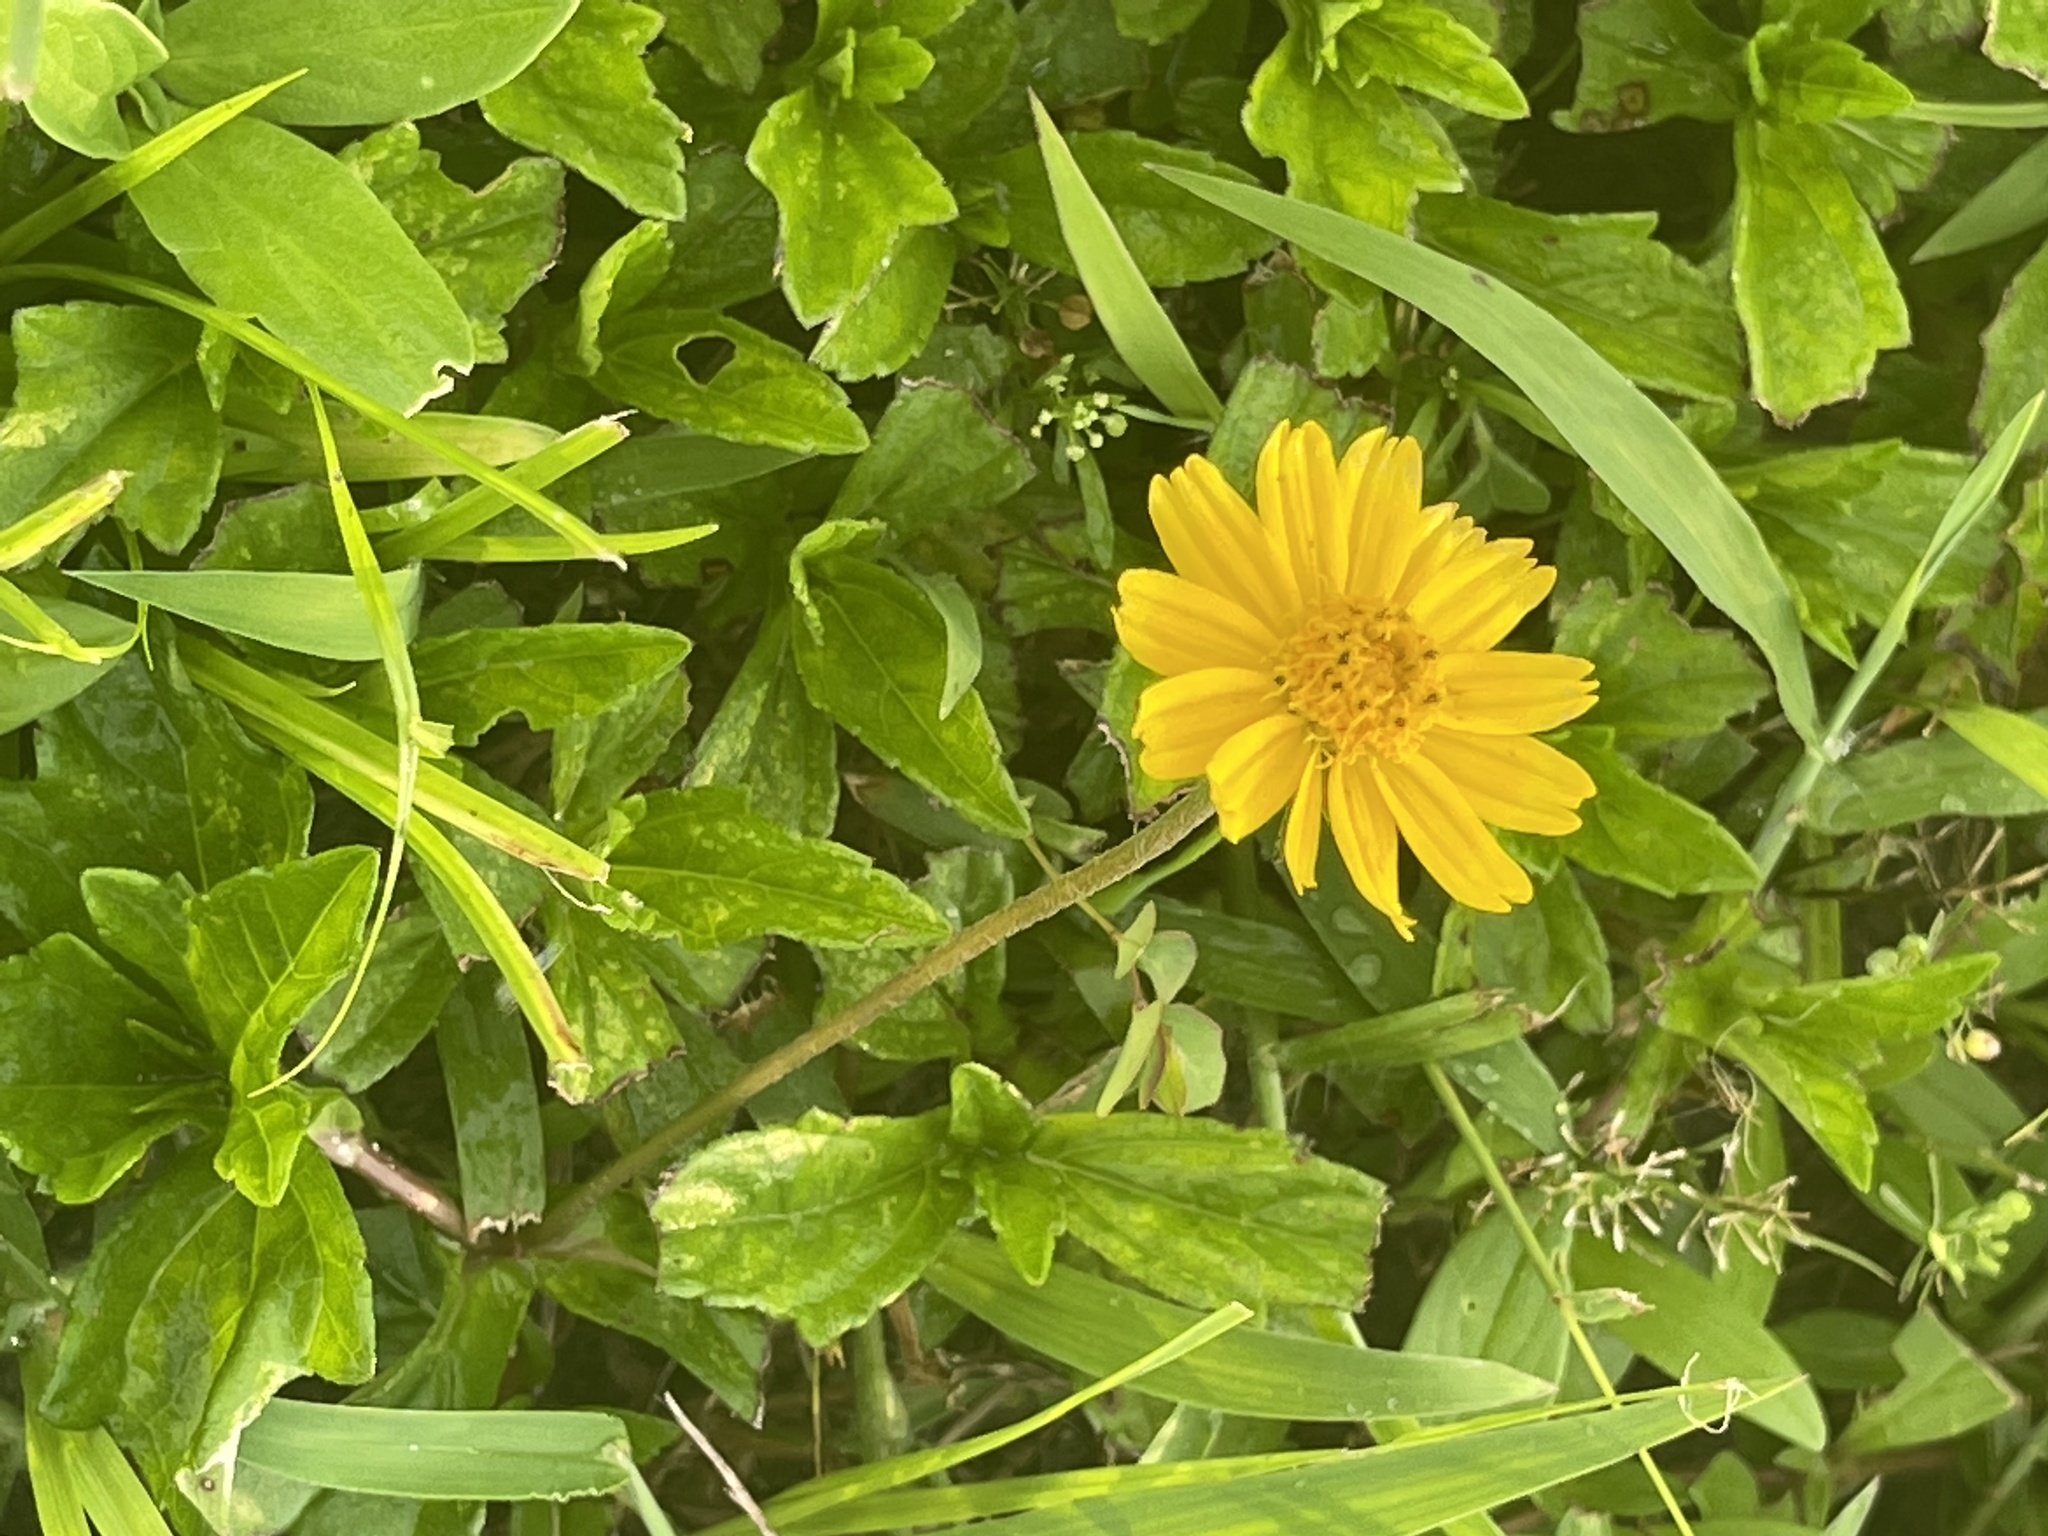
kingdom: Plantae
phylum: Tracheophyta
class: Magnoliopsida
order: Asterales
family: Asteraceae
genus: Sphagneticola
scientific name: Sphagneticola trilobata
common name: Bay biscayne creeping-oxeye
